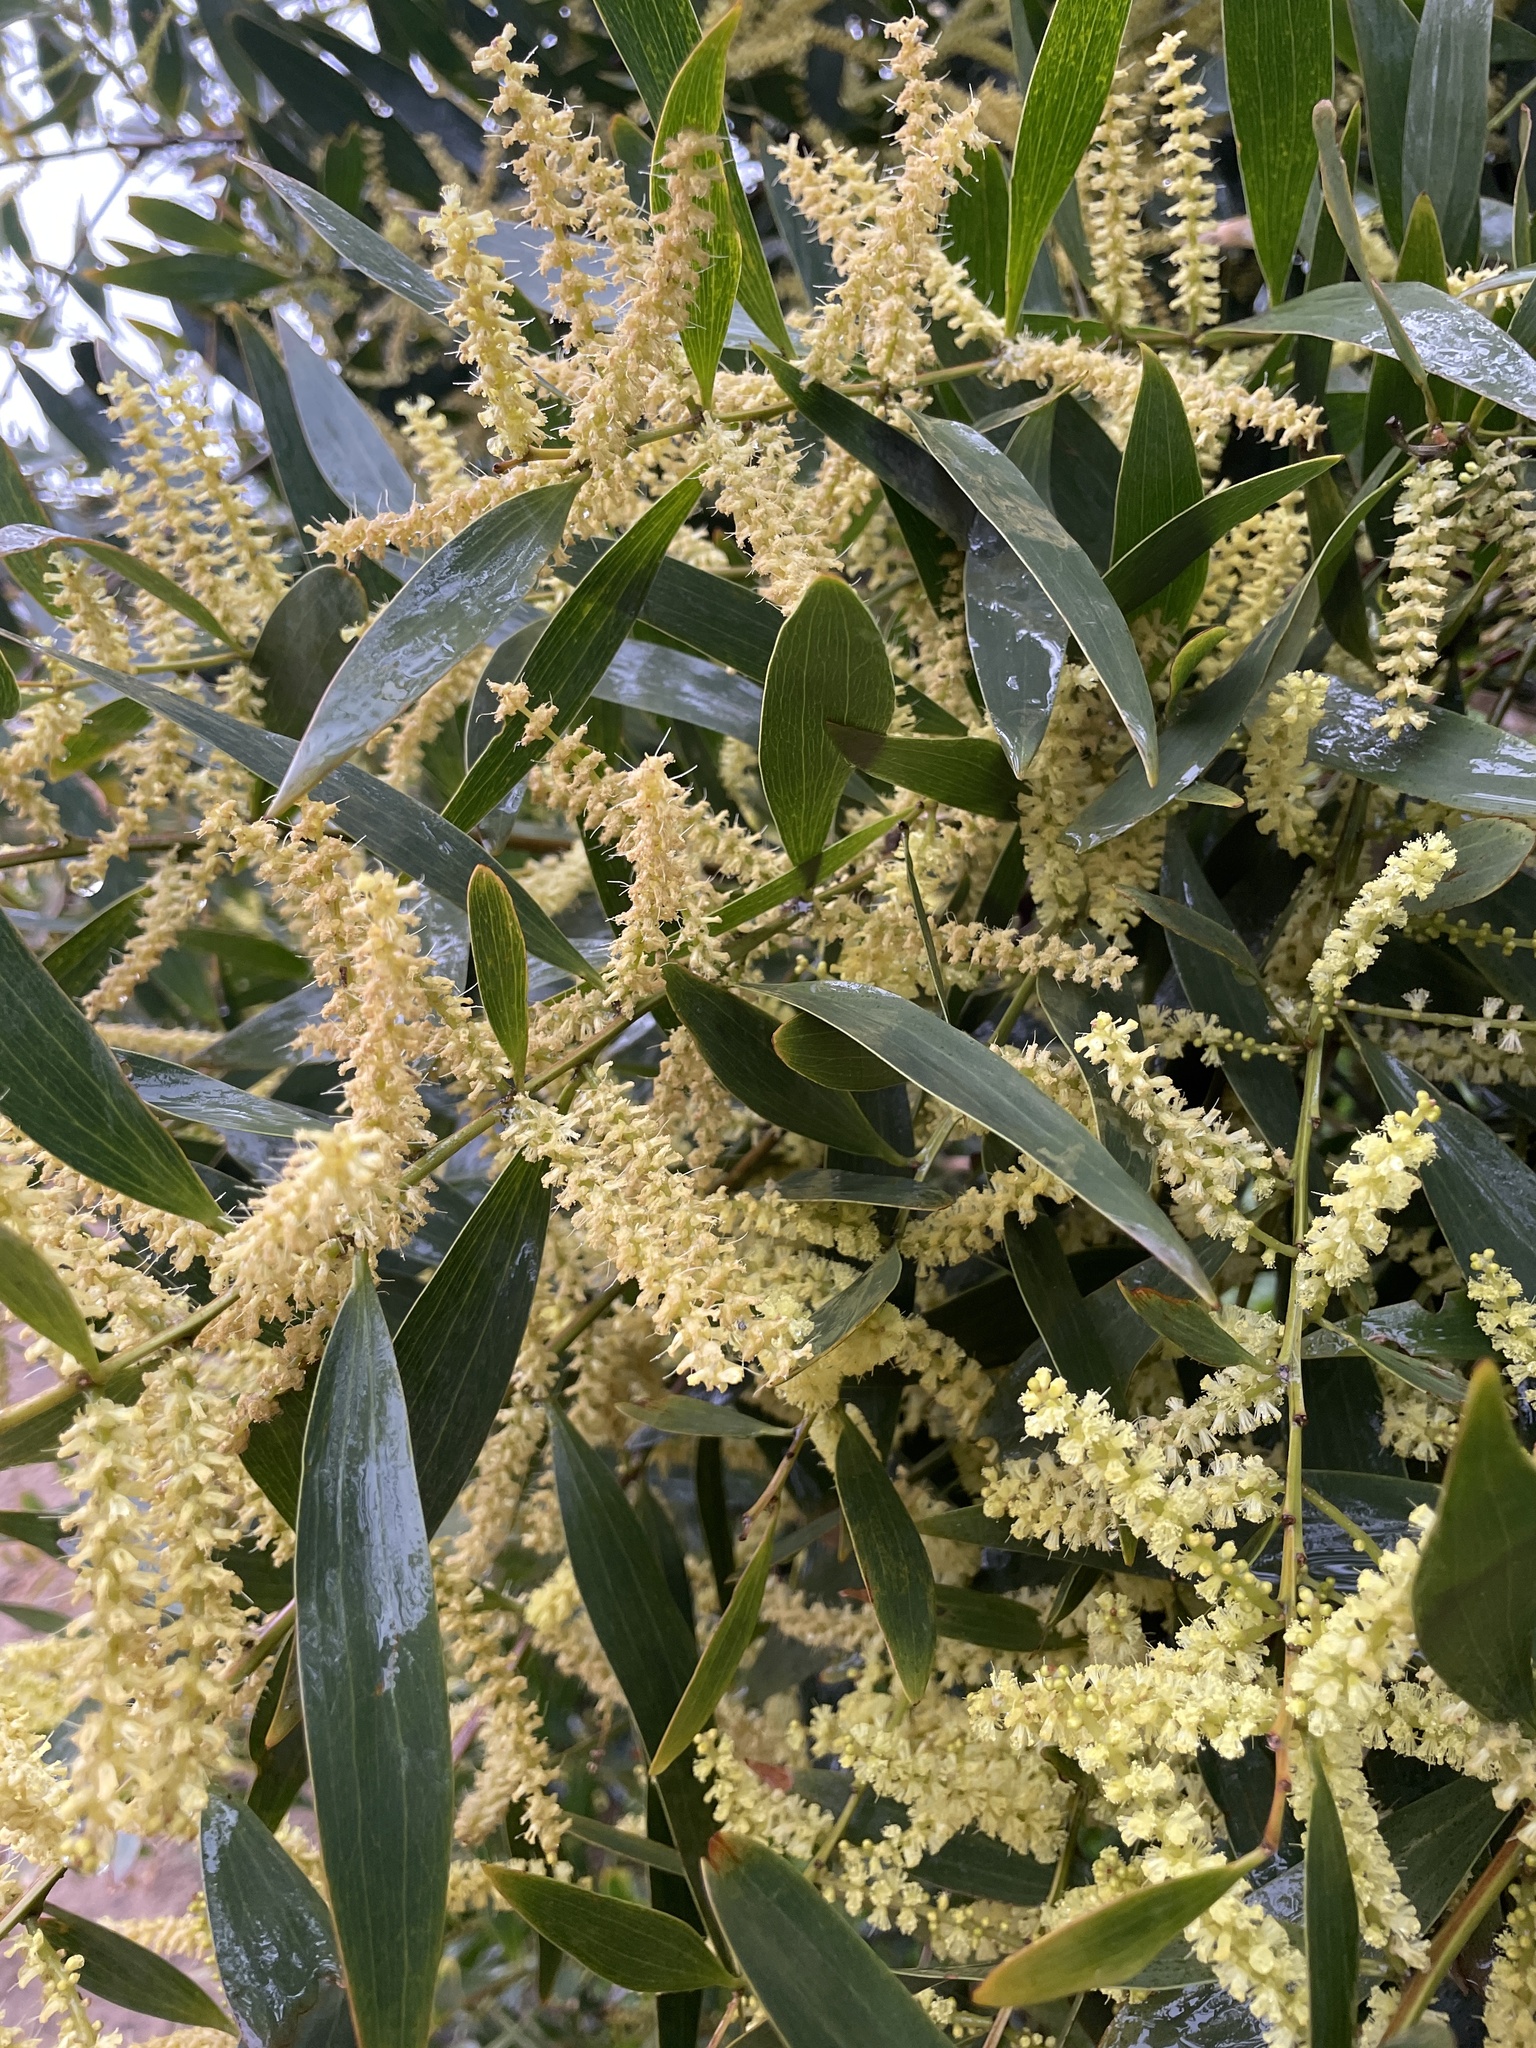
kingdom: Plantae
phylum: Tracheophyta
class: Magnoliopsida
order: Fabales
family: Fabaceae
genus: Acacia
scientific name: Acacia longifolia
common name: Sydney golden wattle
